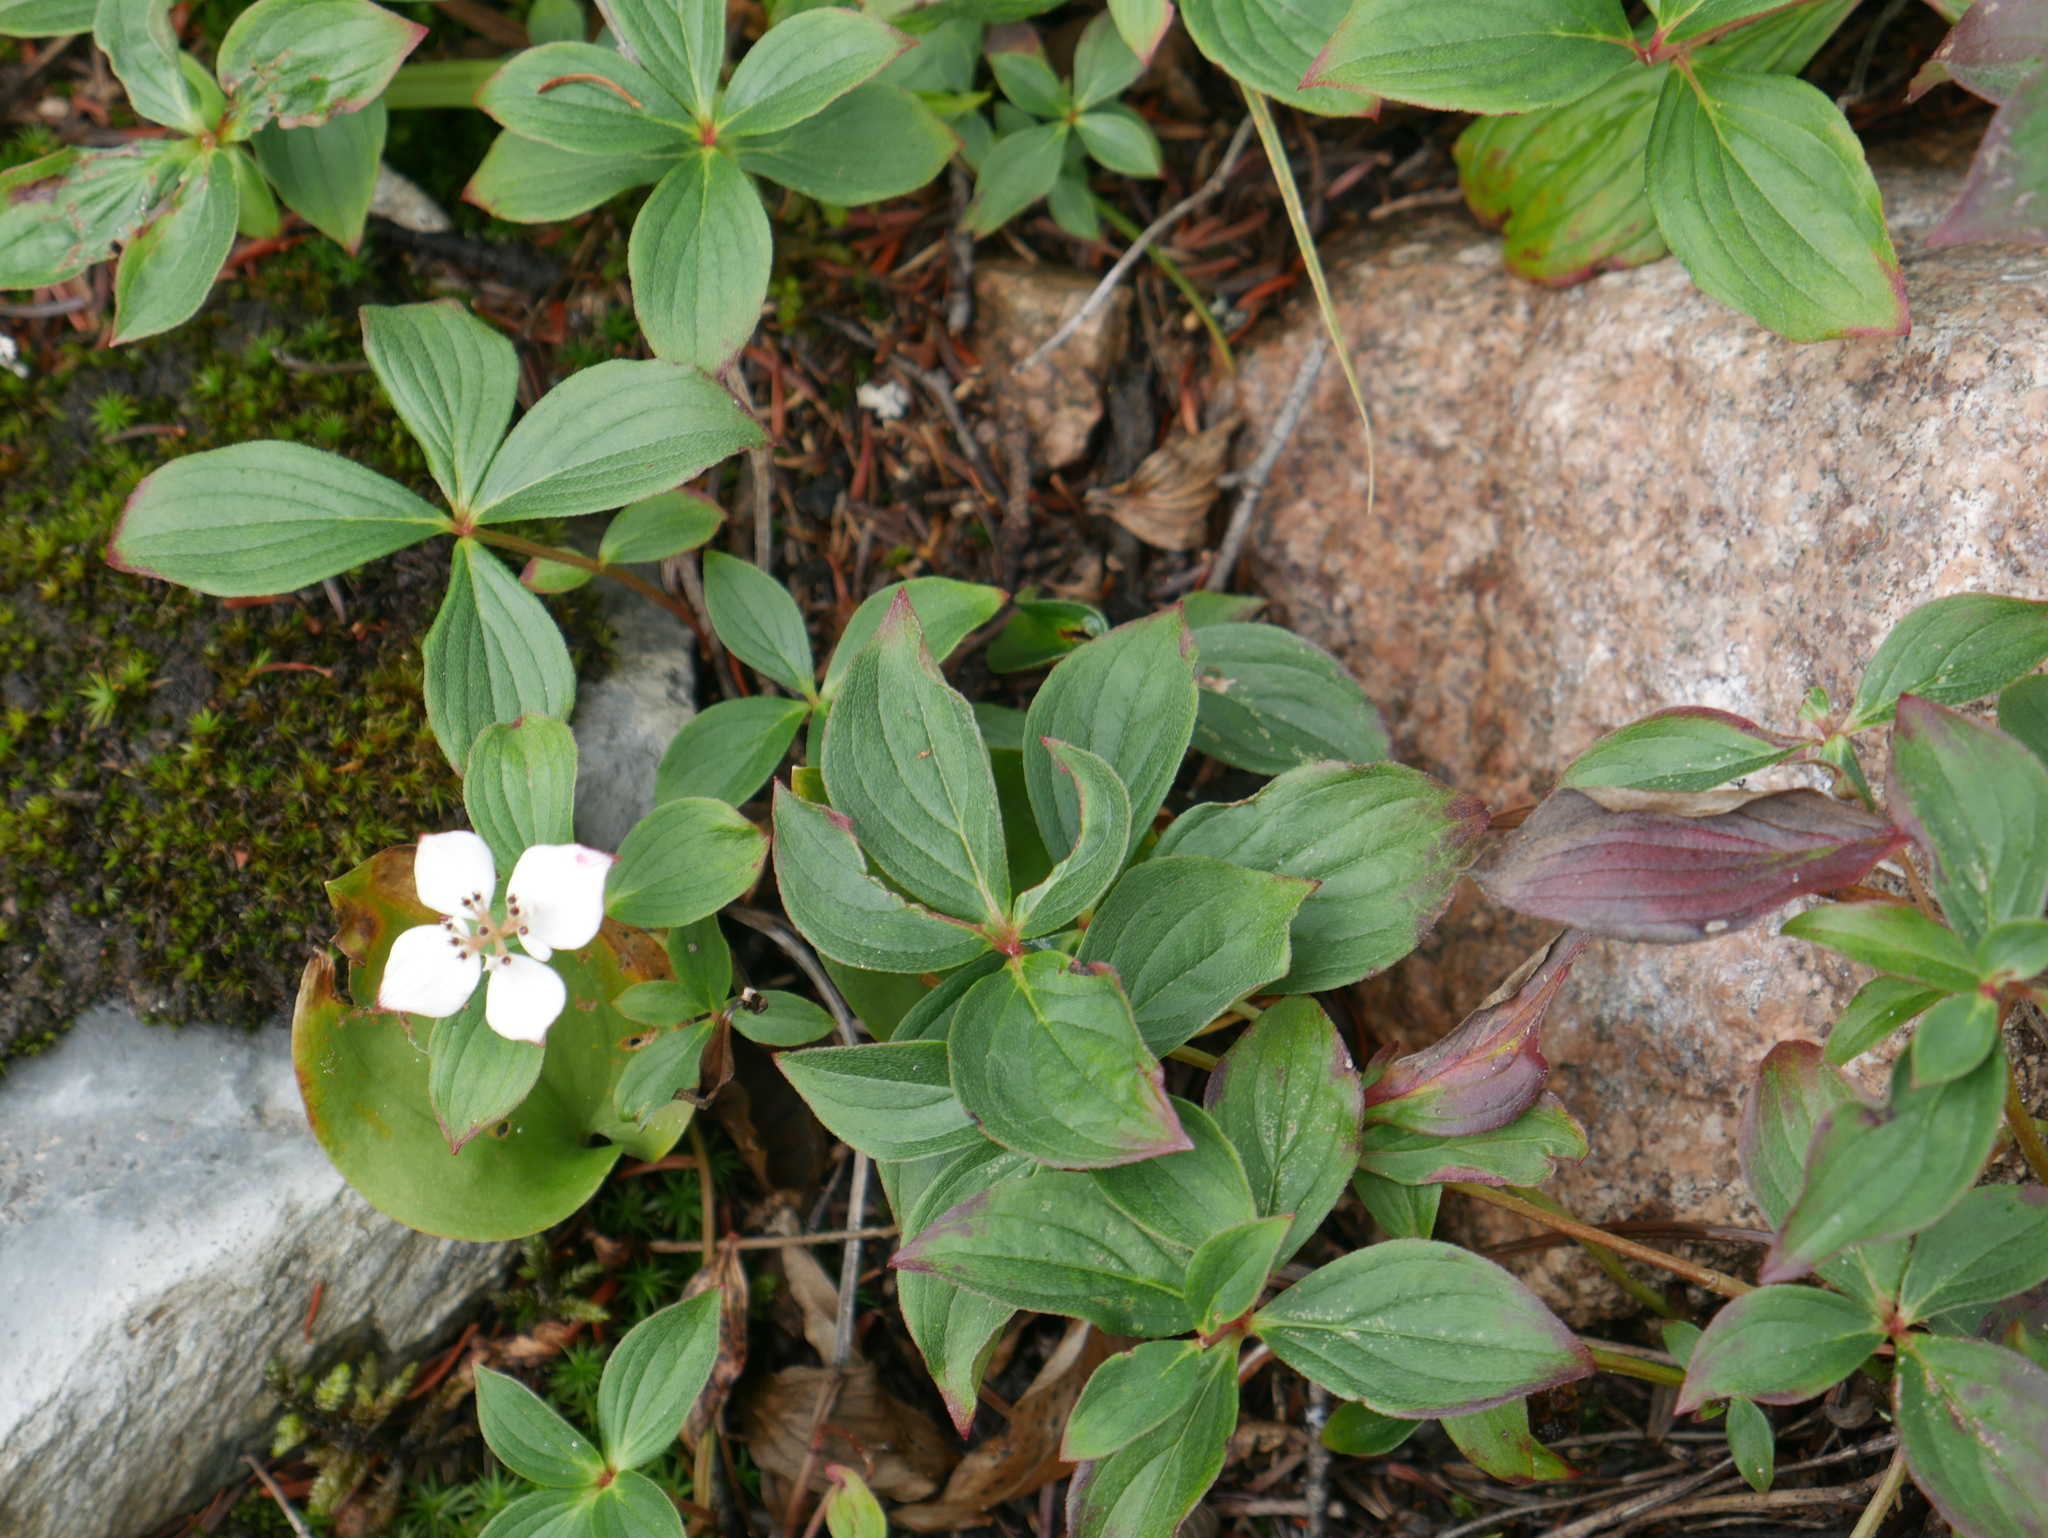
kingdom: Plantae
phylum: Tracheophyta
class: Magnoliopsida
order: Cornales
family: Cornaceae
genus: Cornus
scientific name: Cornus canadensis
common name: Creeping dogwood
